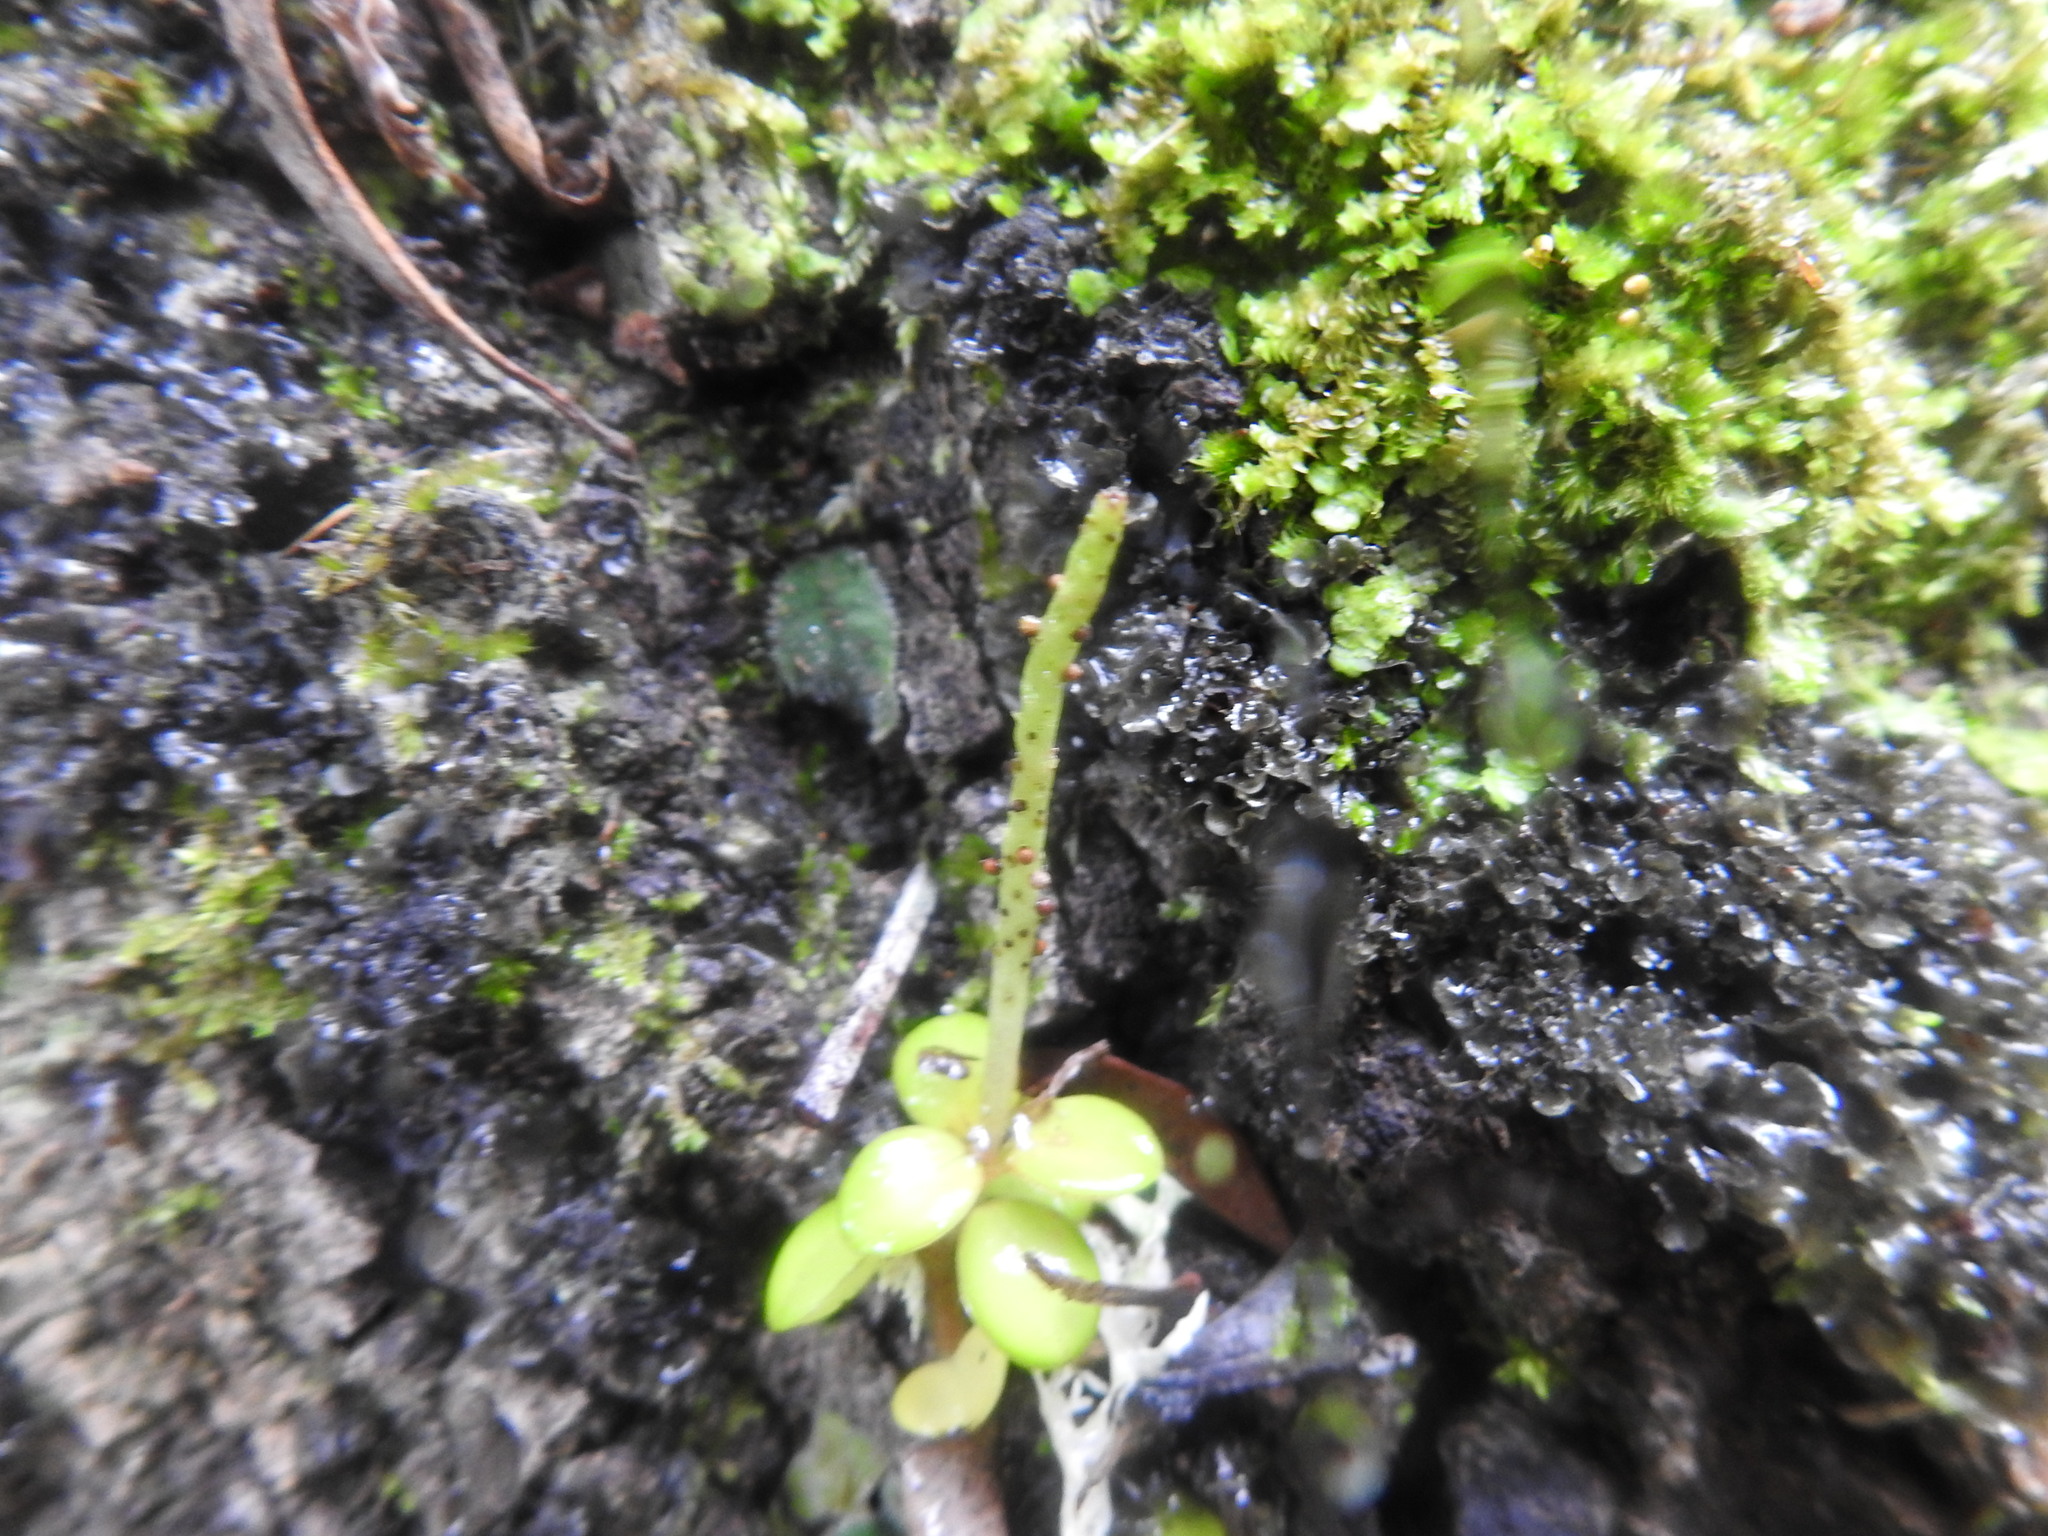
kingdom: Plantae
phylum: Tracheophyta
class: Magnoliopsida
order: Piperales
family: Piperaceae
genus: Peperomia
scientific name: Peperomia retusa
